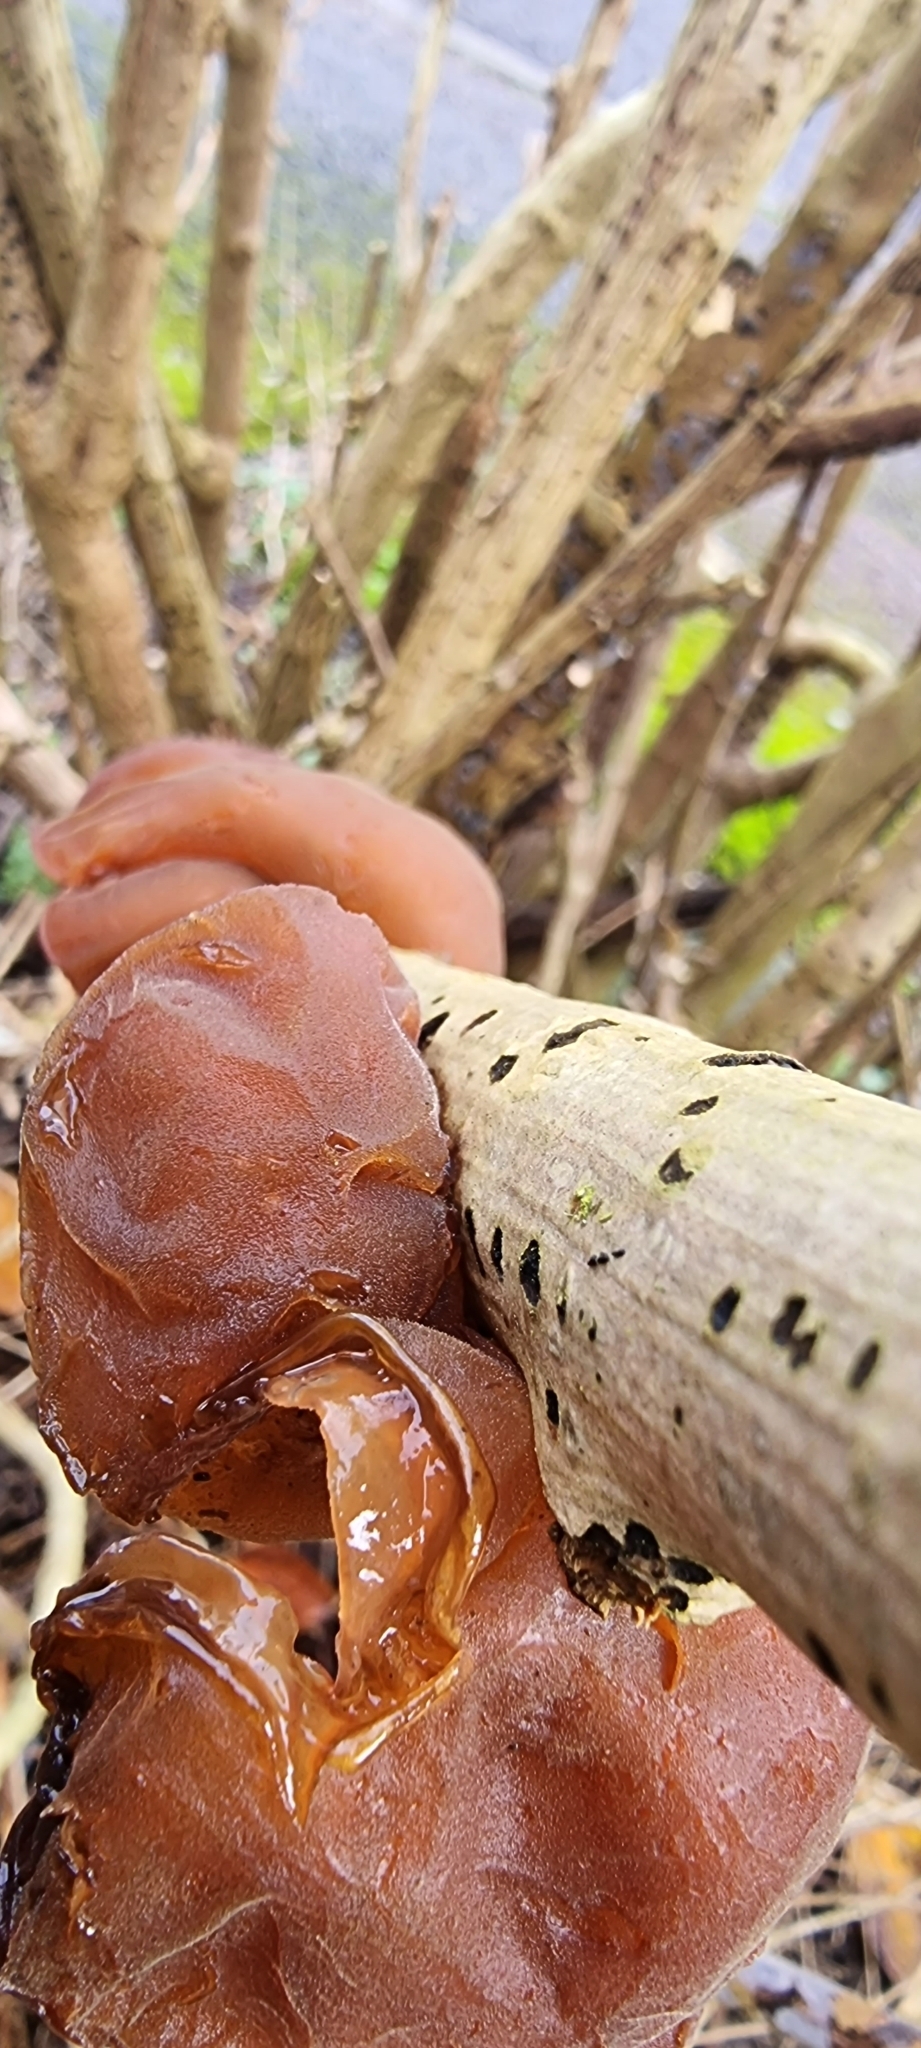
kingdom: Fungi
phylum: Basidiomycota
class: Agaricomycetes
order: Auriculariales
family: Auriculariaceae
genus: Auricularia
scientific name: Auricularia auricula-judae
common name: Jelly ear
